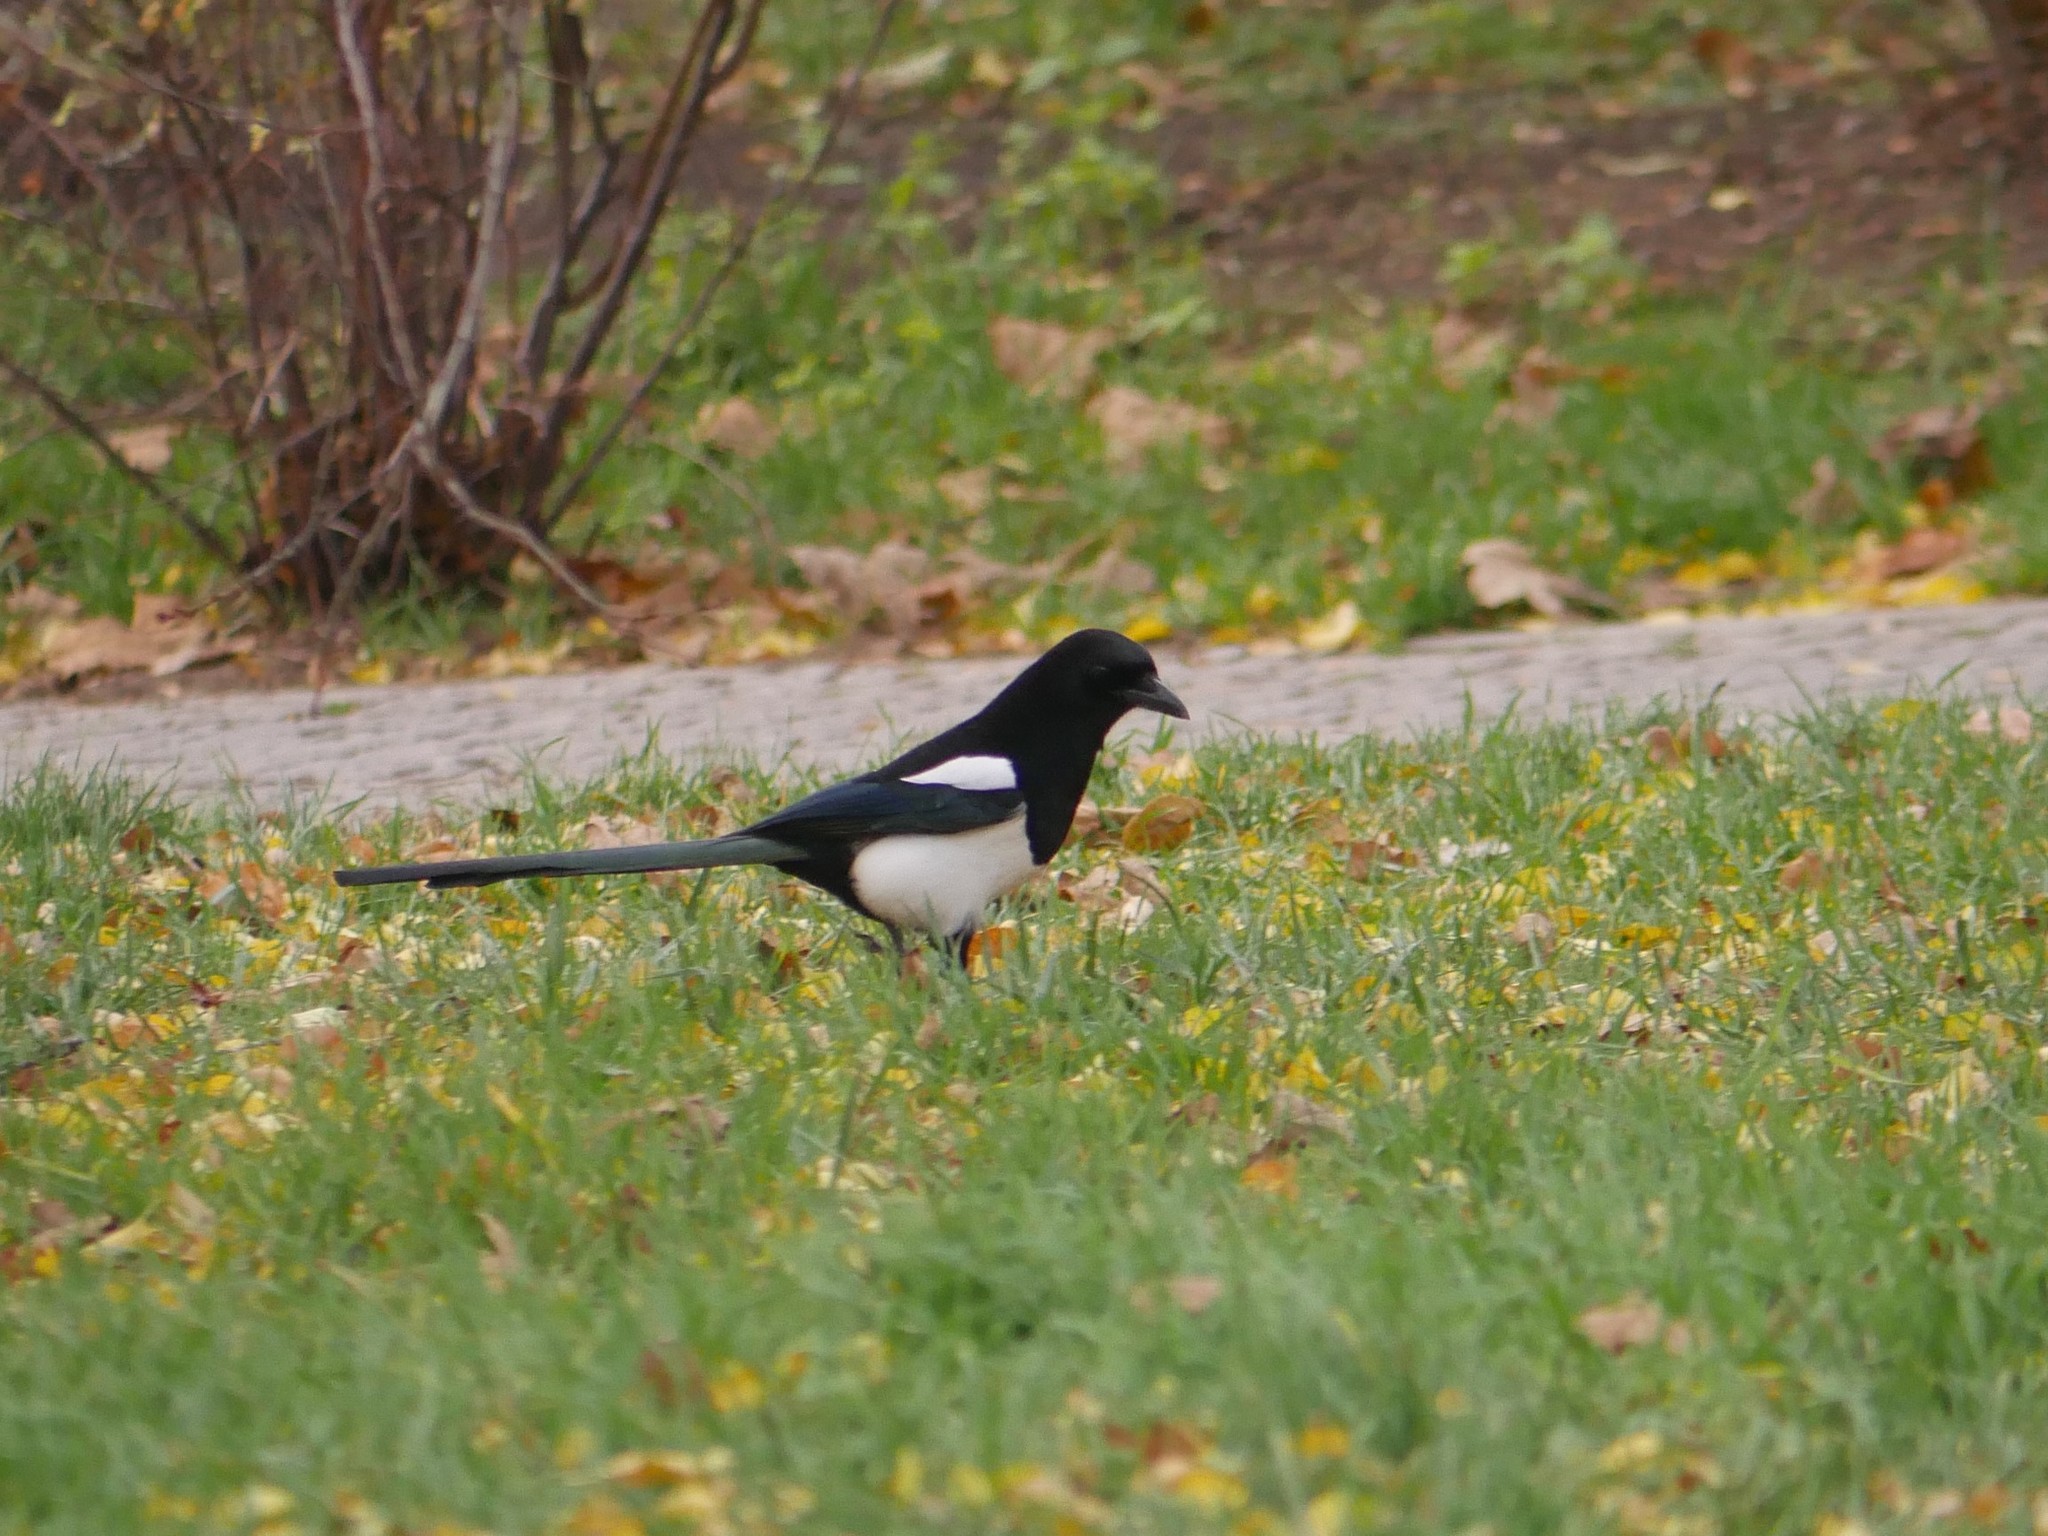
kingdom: Animalia
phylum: Chordata
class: Aves
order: Passeriformes
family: Corvidae
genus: Pica
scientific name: Pica pica
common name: Eurasian magpie
